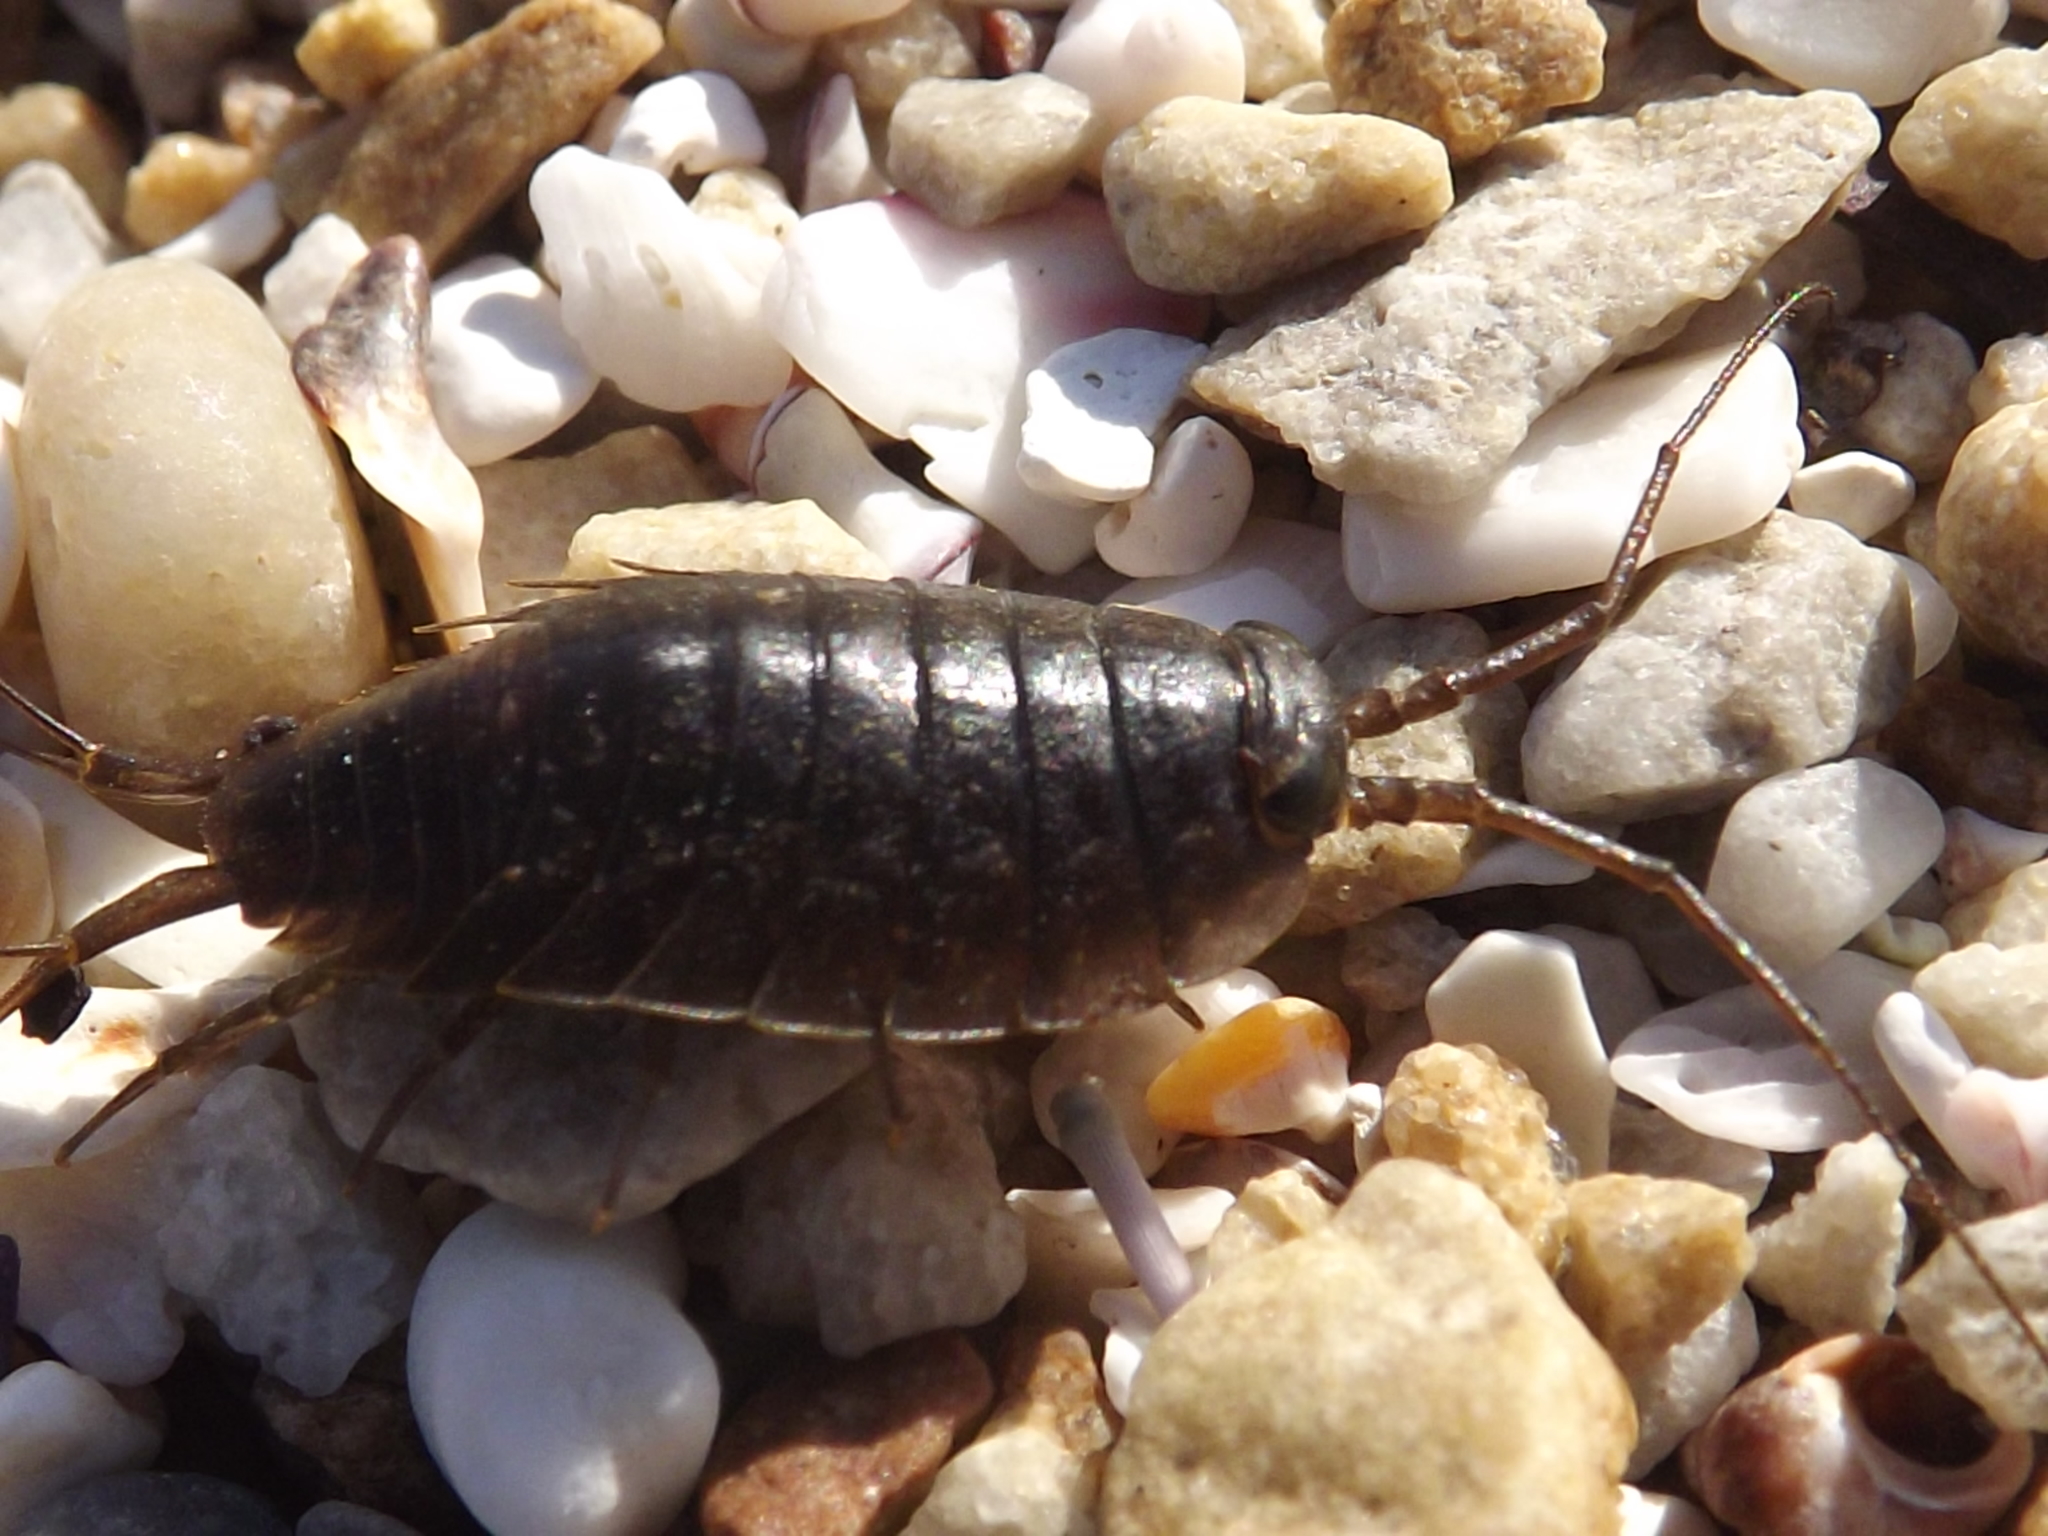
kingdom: Animalia
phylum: Arthropoda
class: Malacostraca
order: Isopoda
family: Ligiidae
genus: Ligia
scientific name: Ligia glabrata
